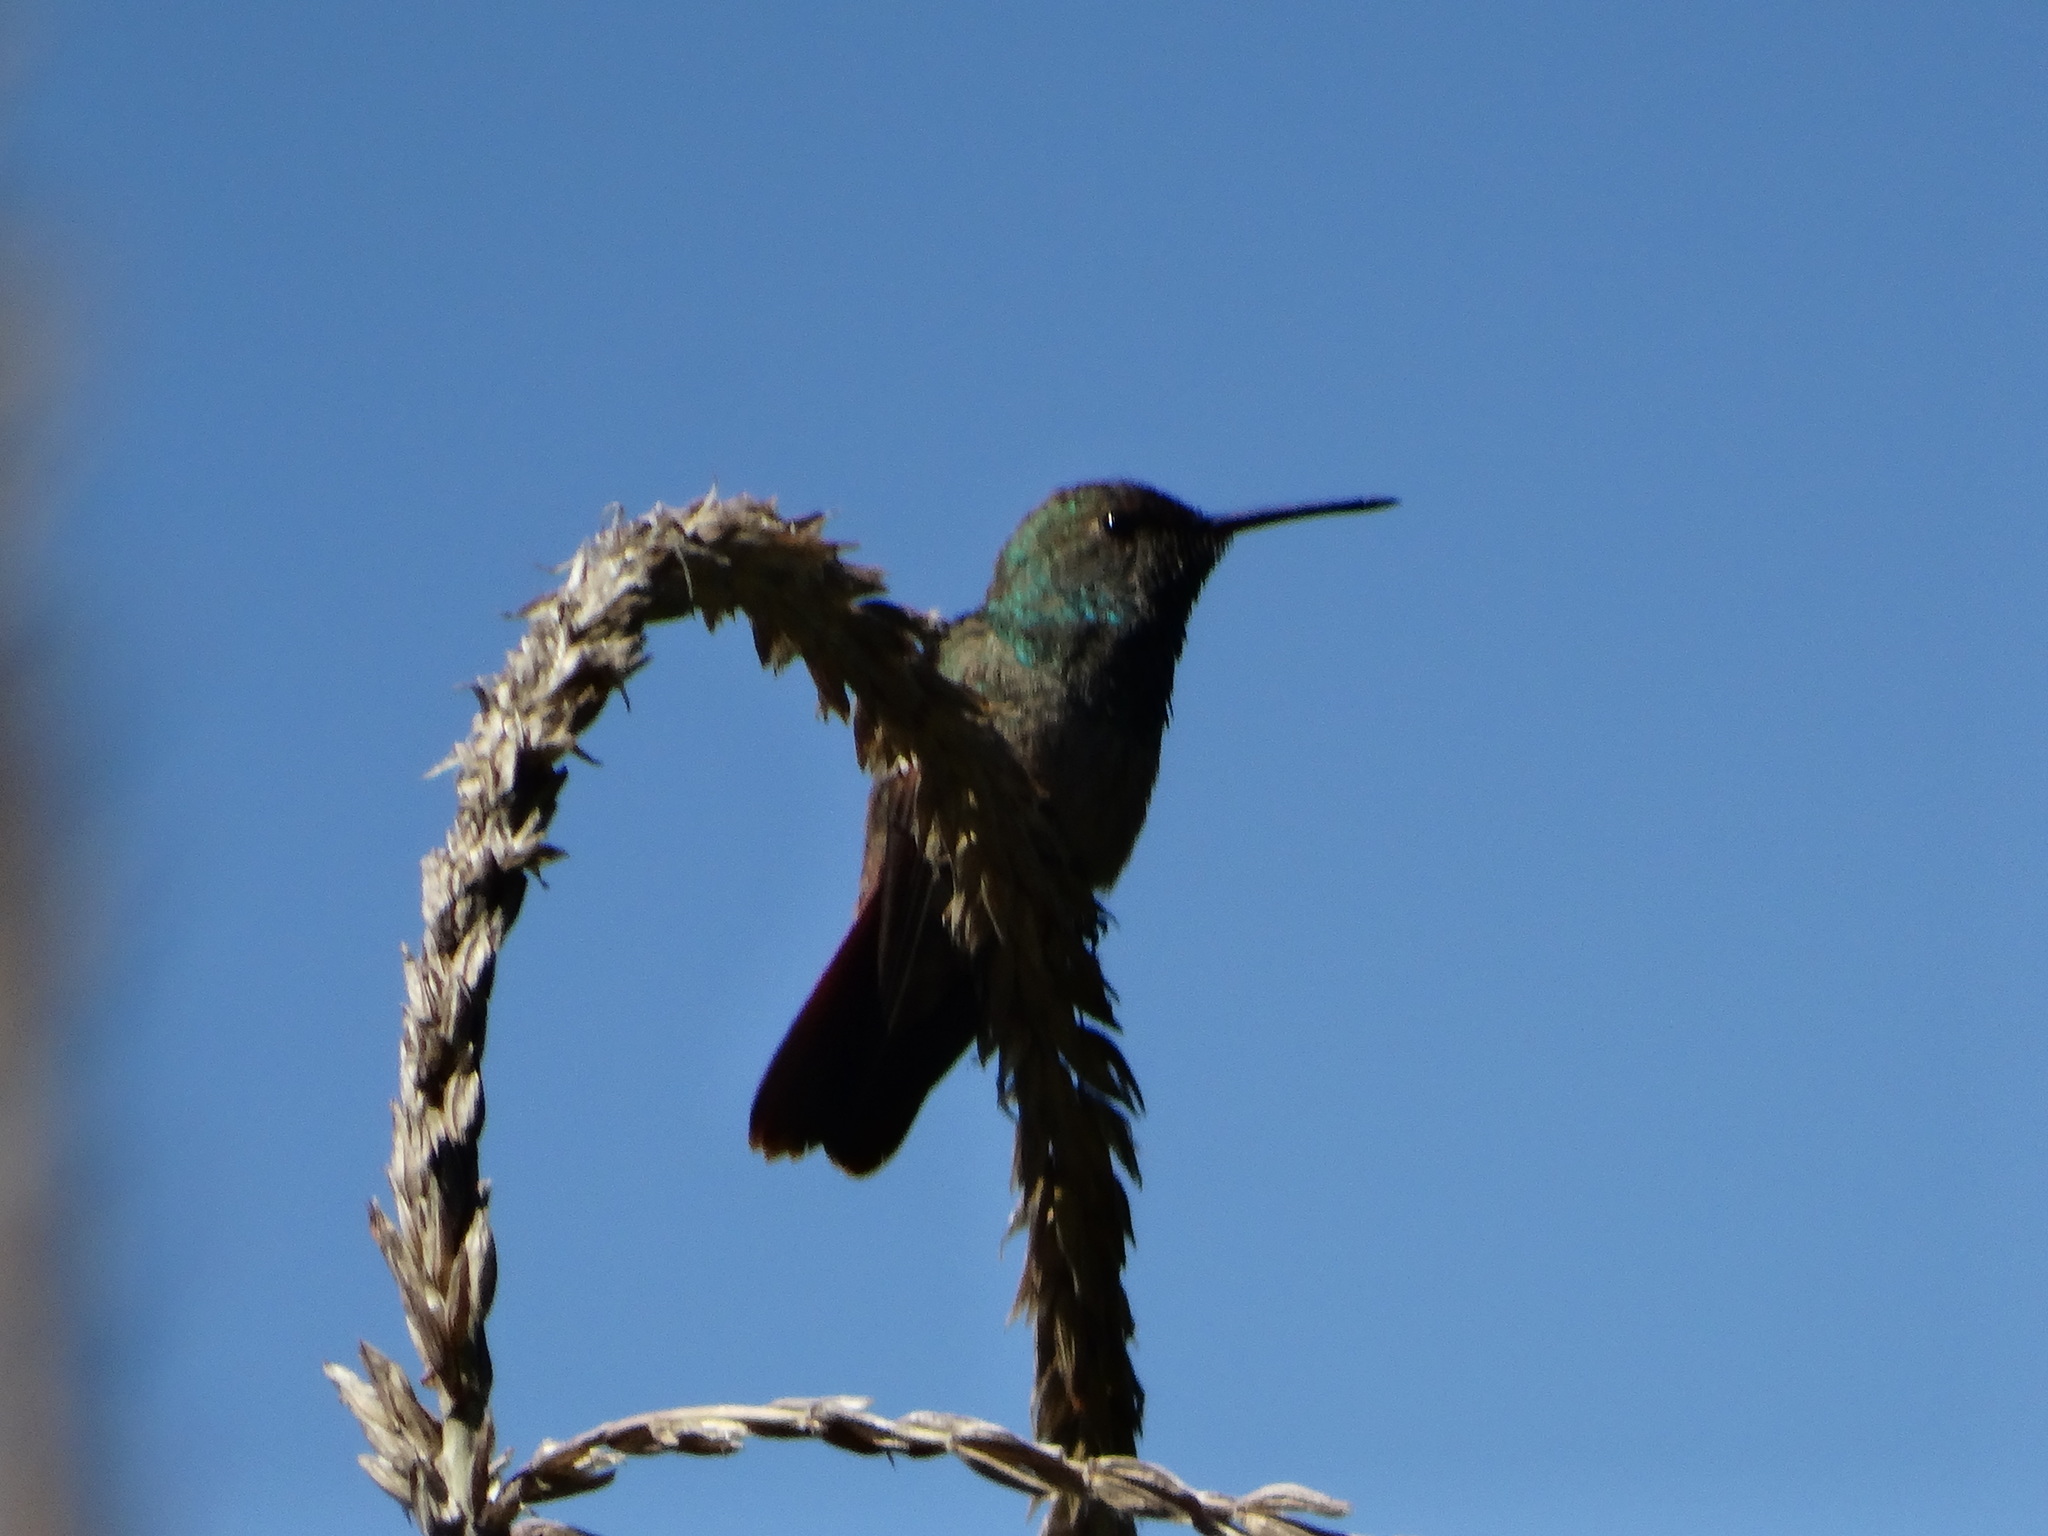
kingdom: Animalia
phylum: Chordata
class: Aves
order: Apodiformes
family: Trochilidae
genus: Saucerottia
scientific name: Saucerottia beryllina
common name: Berylline hummingbird
